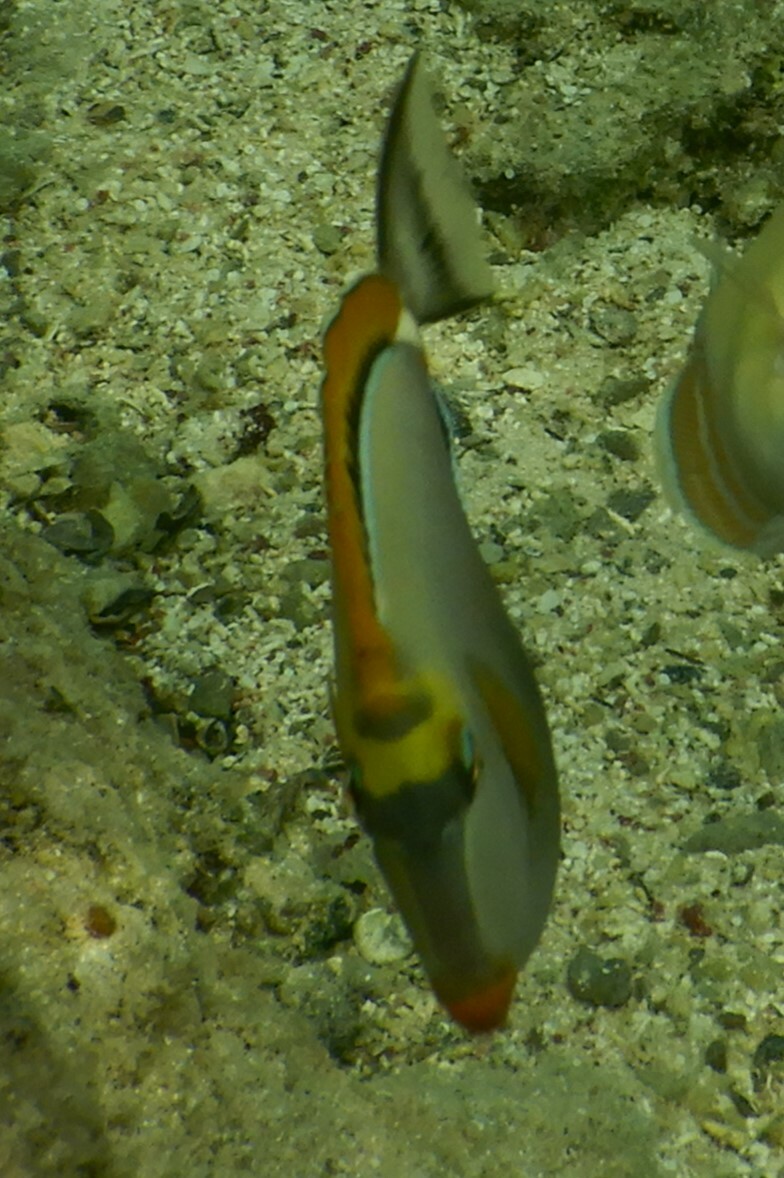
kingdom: Animalia
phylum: Chordata
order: Perciformes
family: Acanthuridae
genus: Naso
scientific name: Naso elegans
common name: Orangespine unicornfish
